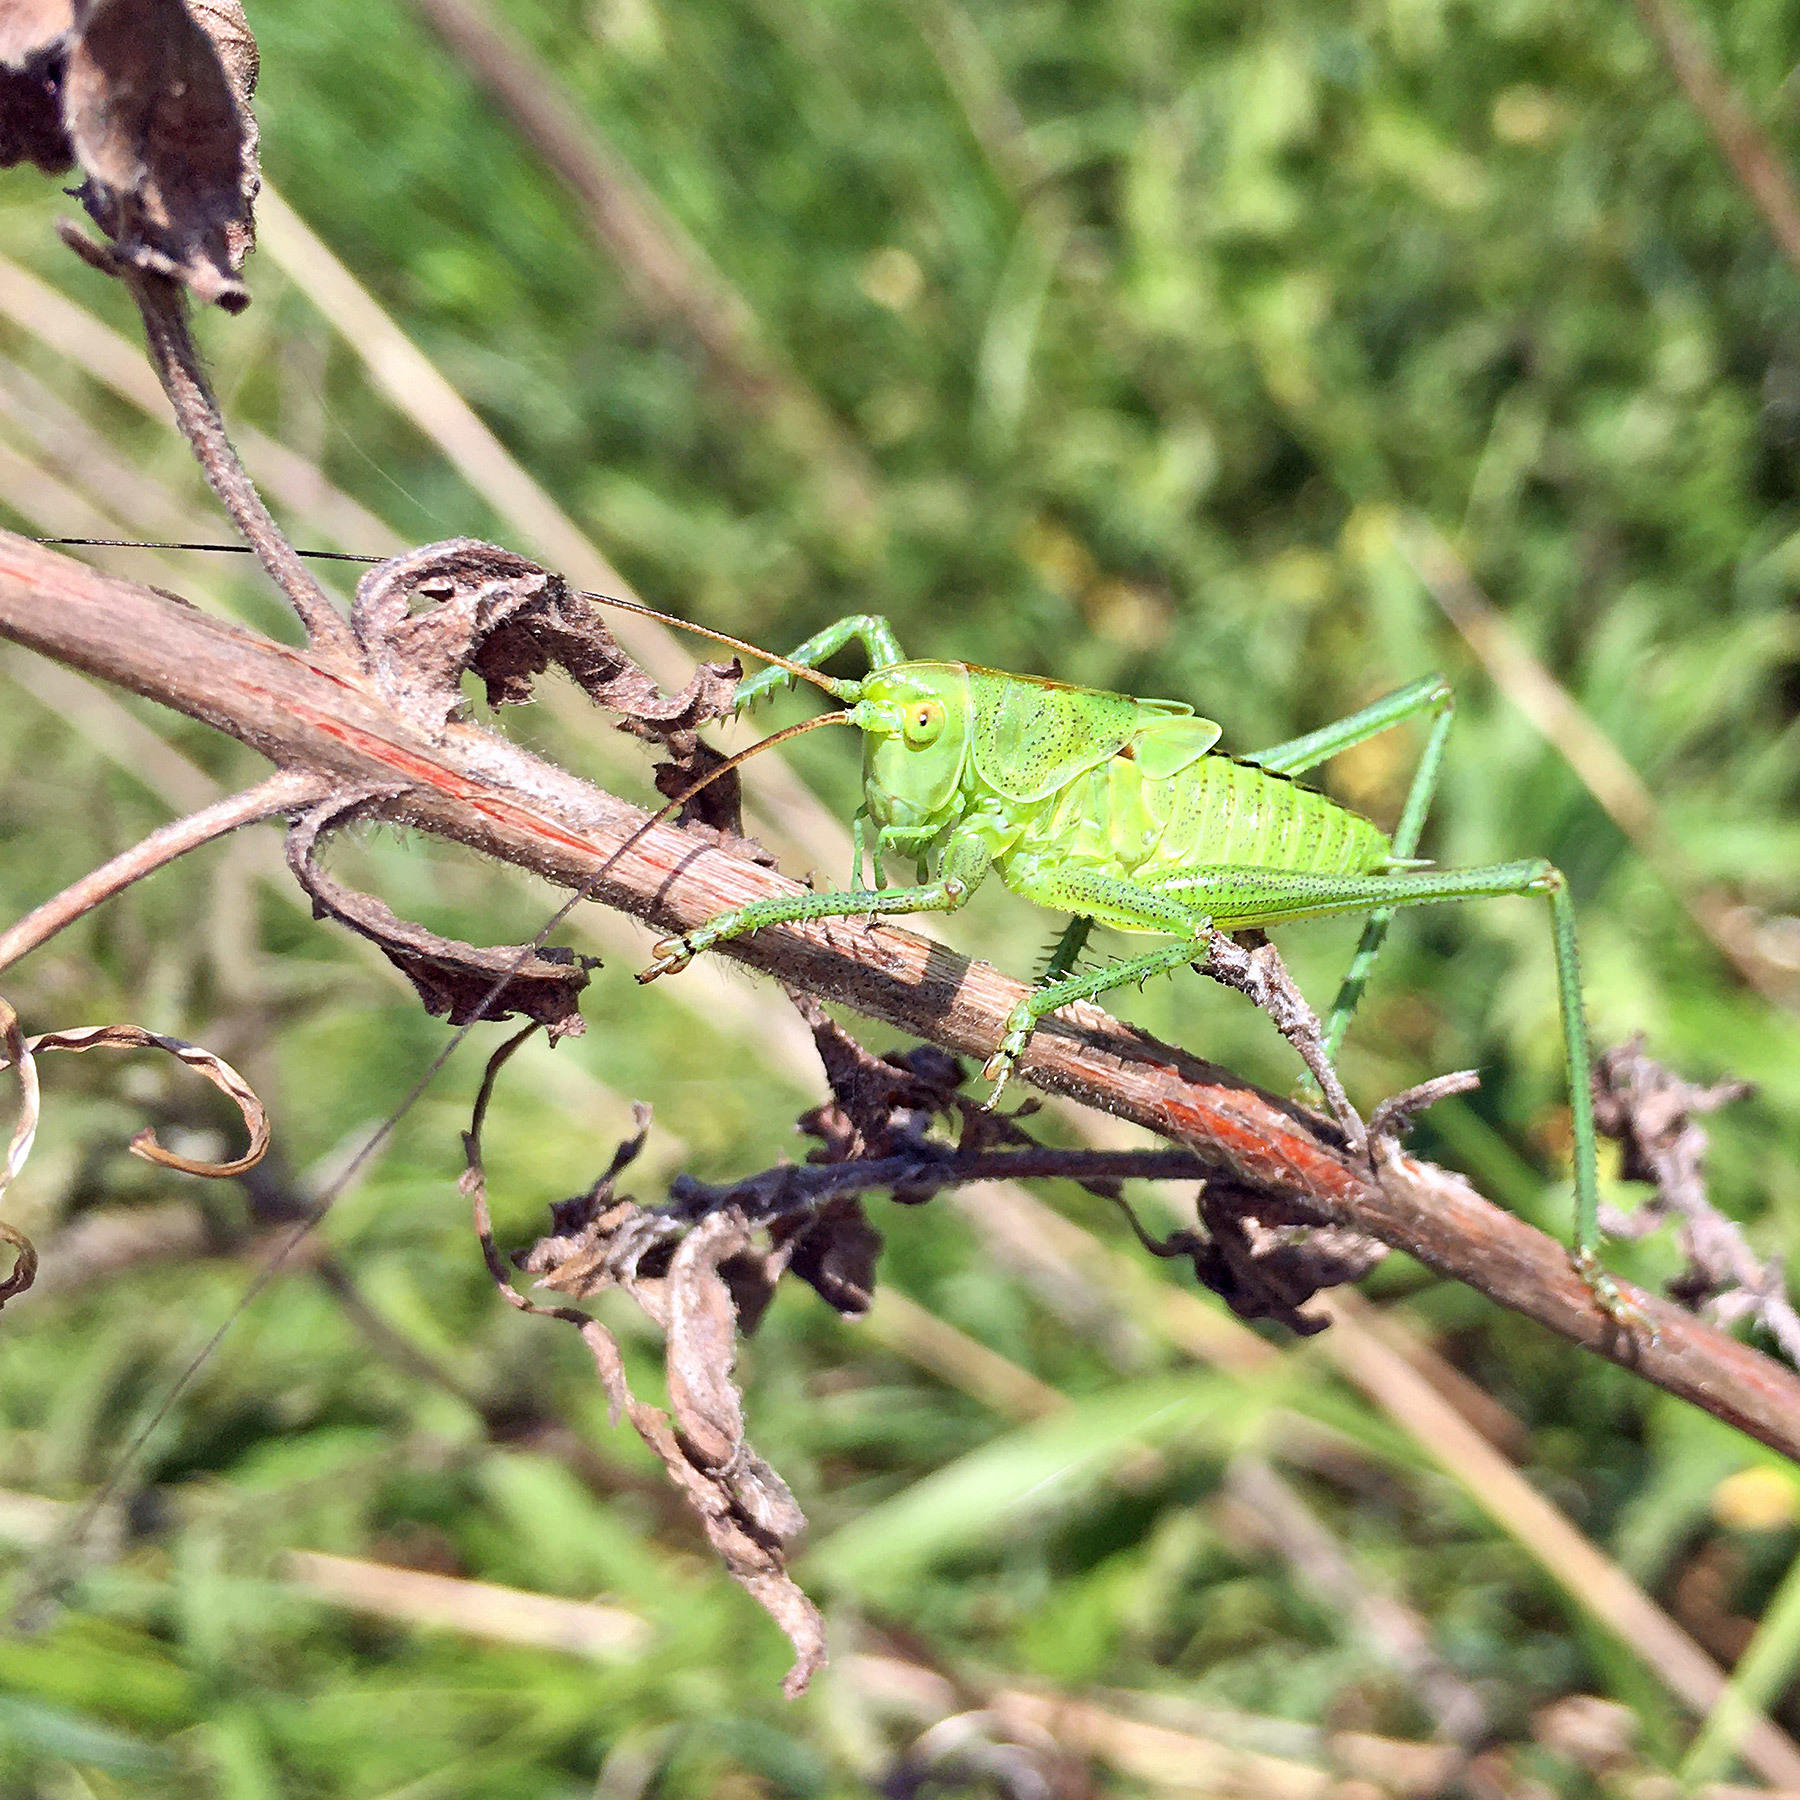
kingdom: Animalia
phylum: Arthropoda
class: Insecta
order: Orthoptera
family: Tettigoniidae
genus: Tettigonia
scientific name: Tettigonia viridissima
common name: Great green bush-cricket
